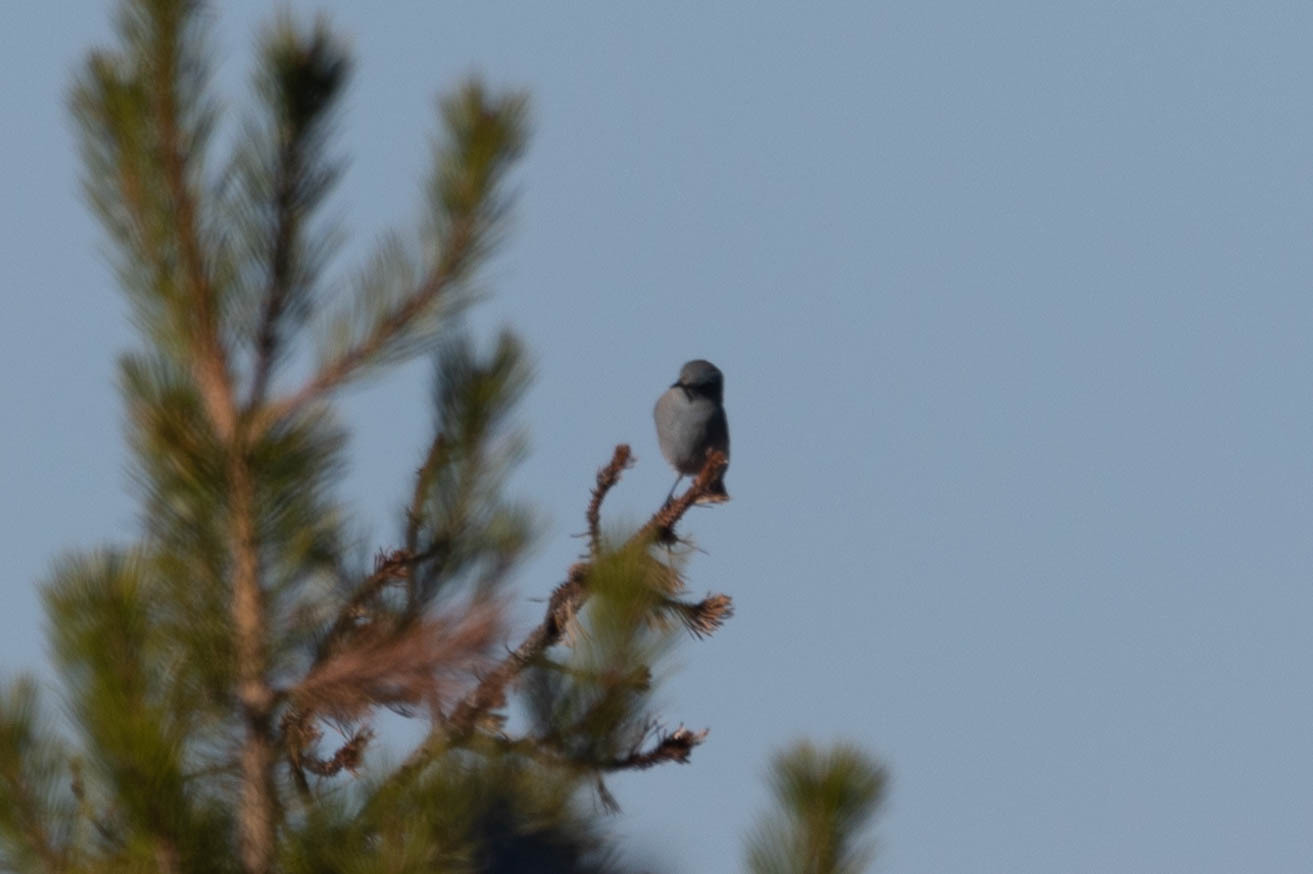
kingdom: Animalia
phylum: Chordata
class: Aves
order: Passeriformes
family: Turdidae
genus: Sialia
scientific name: Sialia currucoides
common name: Mountain bluebird
